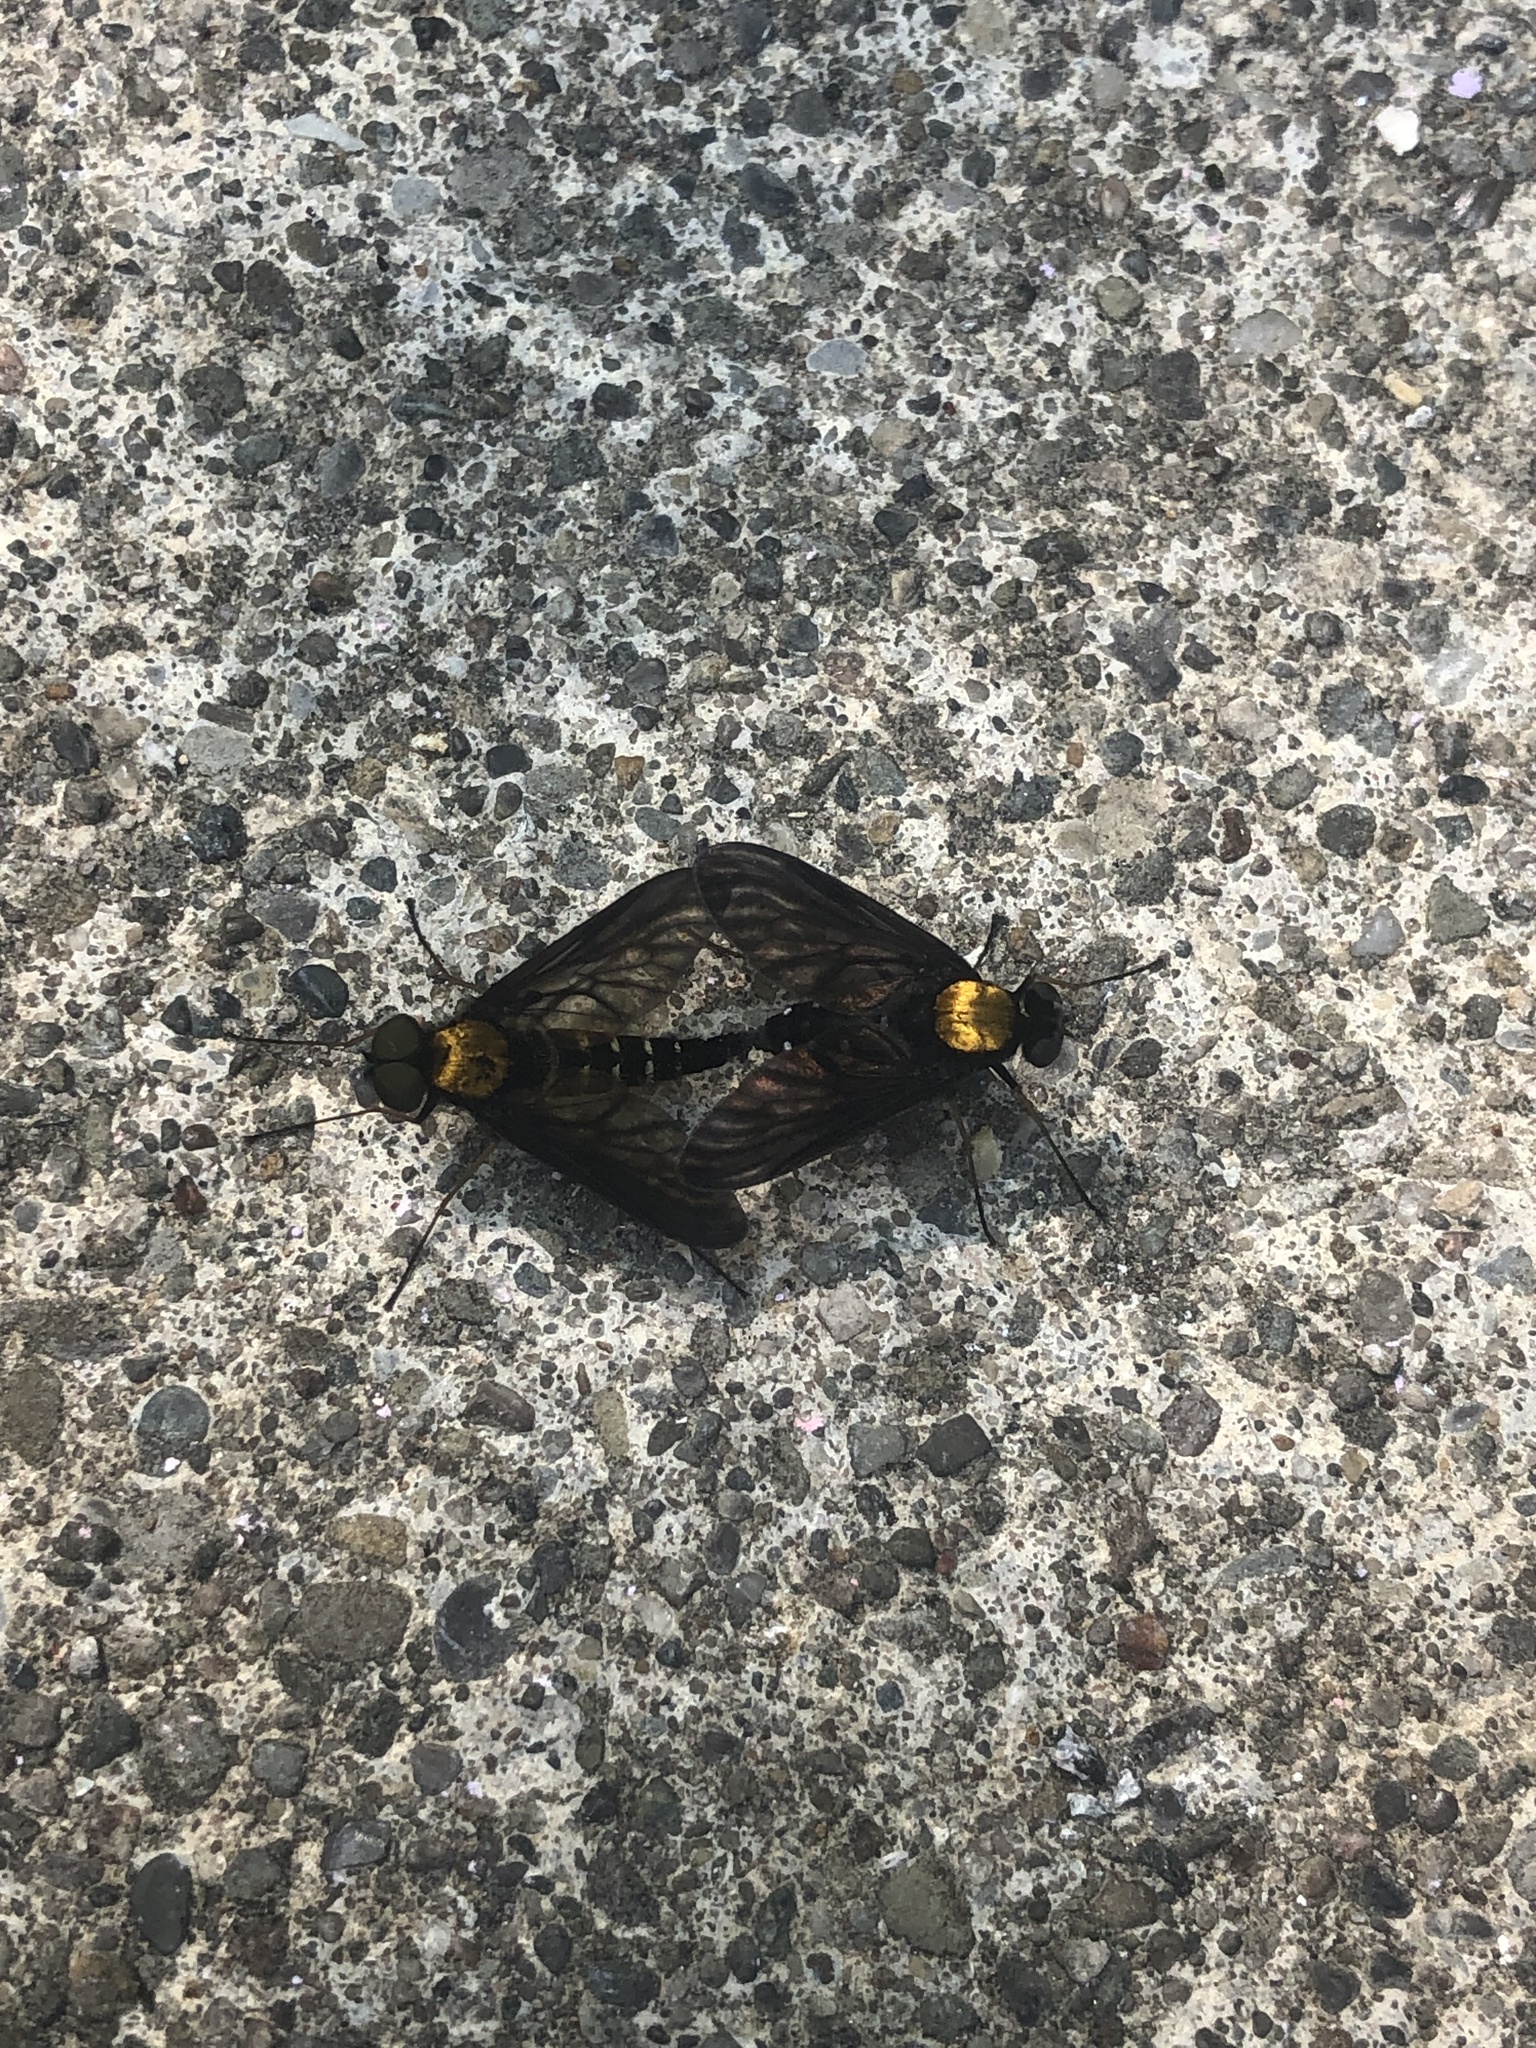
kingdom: Animalia
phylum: Arthropoda
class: Insecta
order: Diptera
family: Rhagionidae
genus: Chrysopilus
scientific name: Chrysopilus thoracicus
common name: Golden-backed snipe fly
